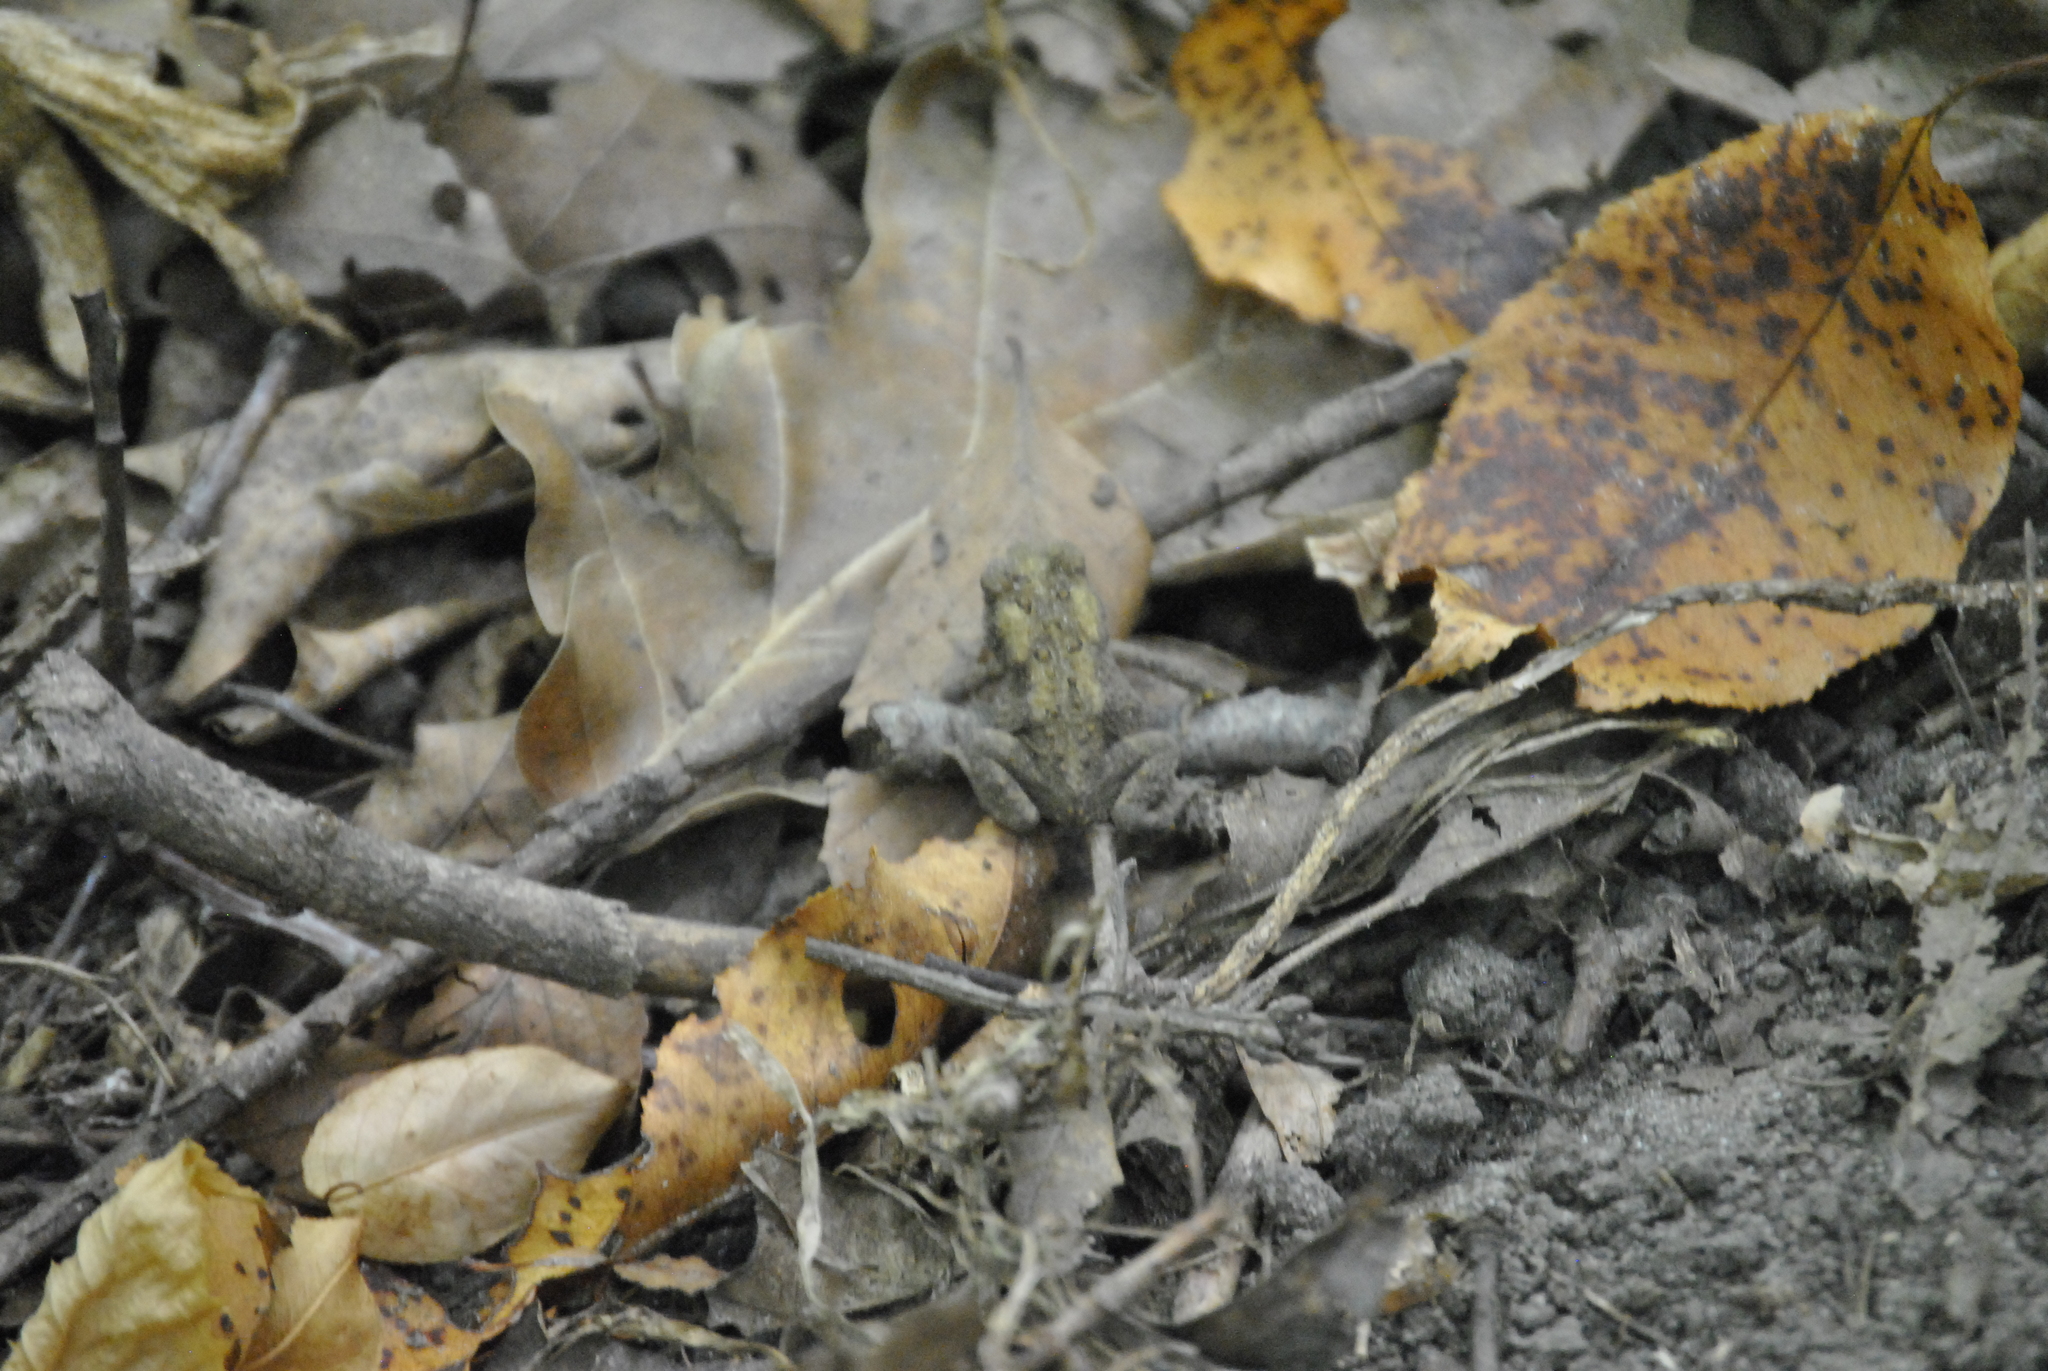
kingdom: Animalia
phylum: Chordata
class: Amphibia
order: Anura
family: Bufonidae
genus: Anaxyrus
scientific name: Anaxyrus americanus
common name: American toad
